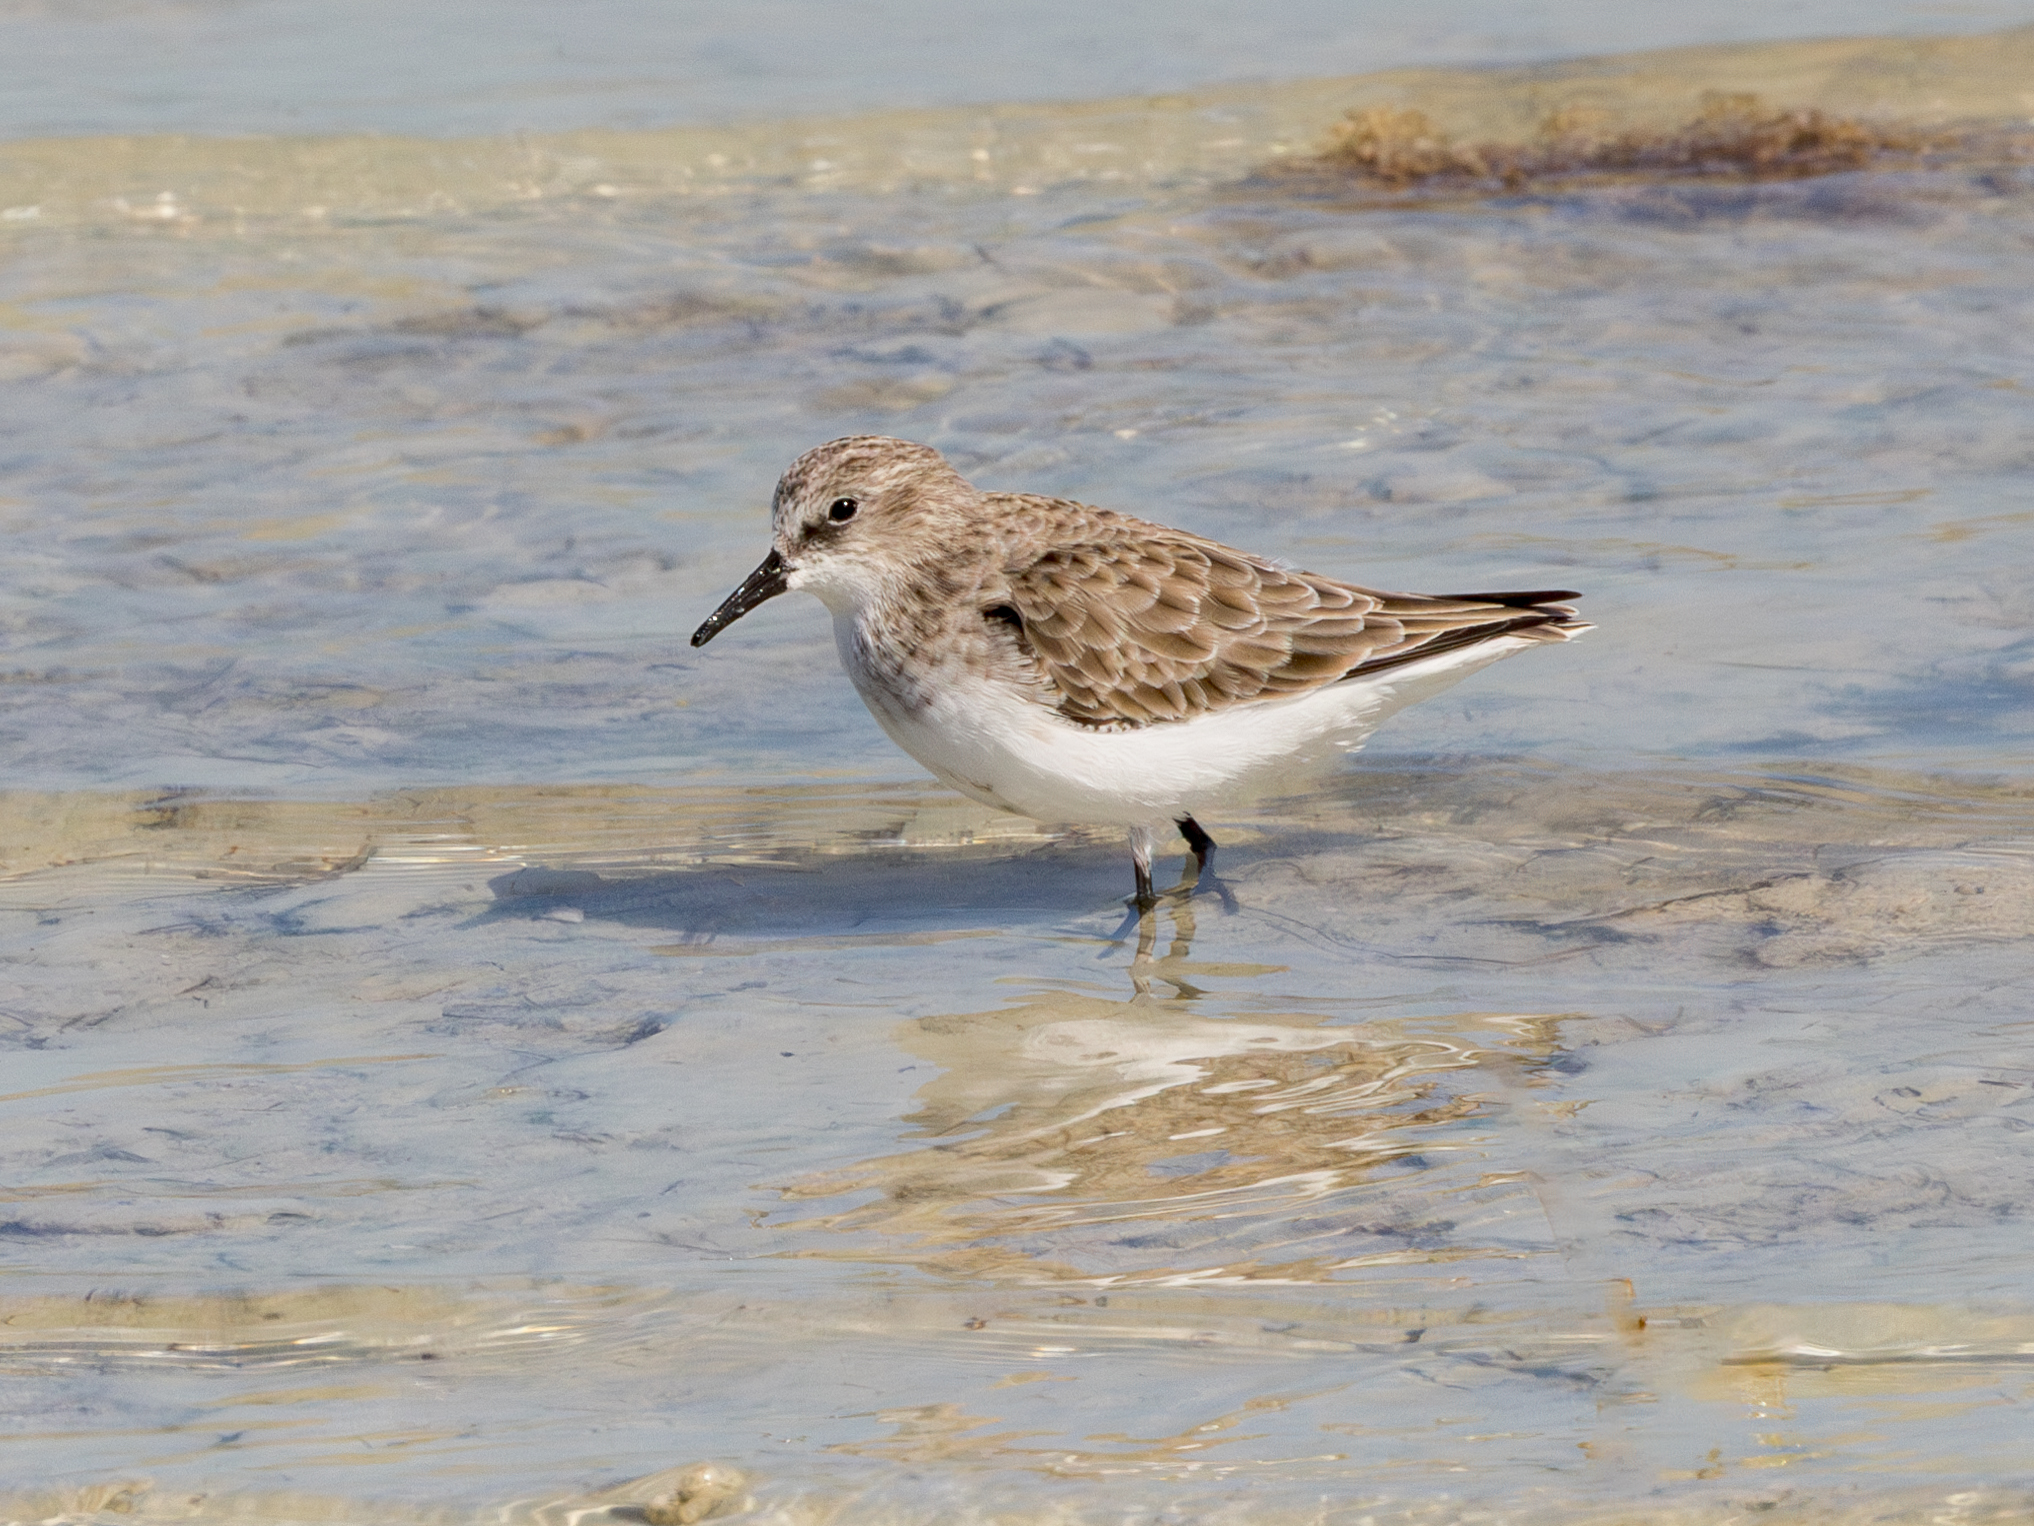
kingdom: Animalia
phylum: Chordata
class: Aves
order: Charadriiformes
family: Scolopacidae
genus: Calidris
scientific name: Calidris minuta
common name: Little stint
